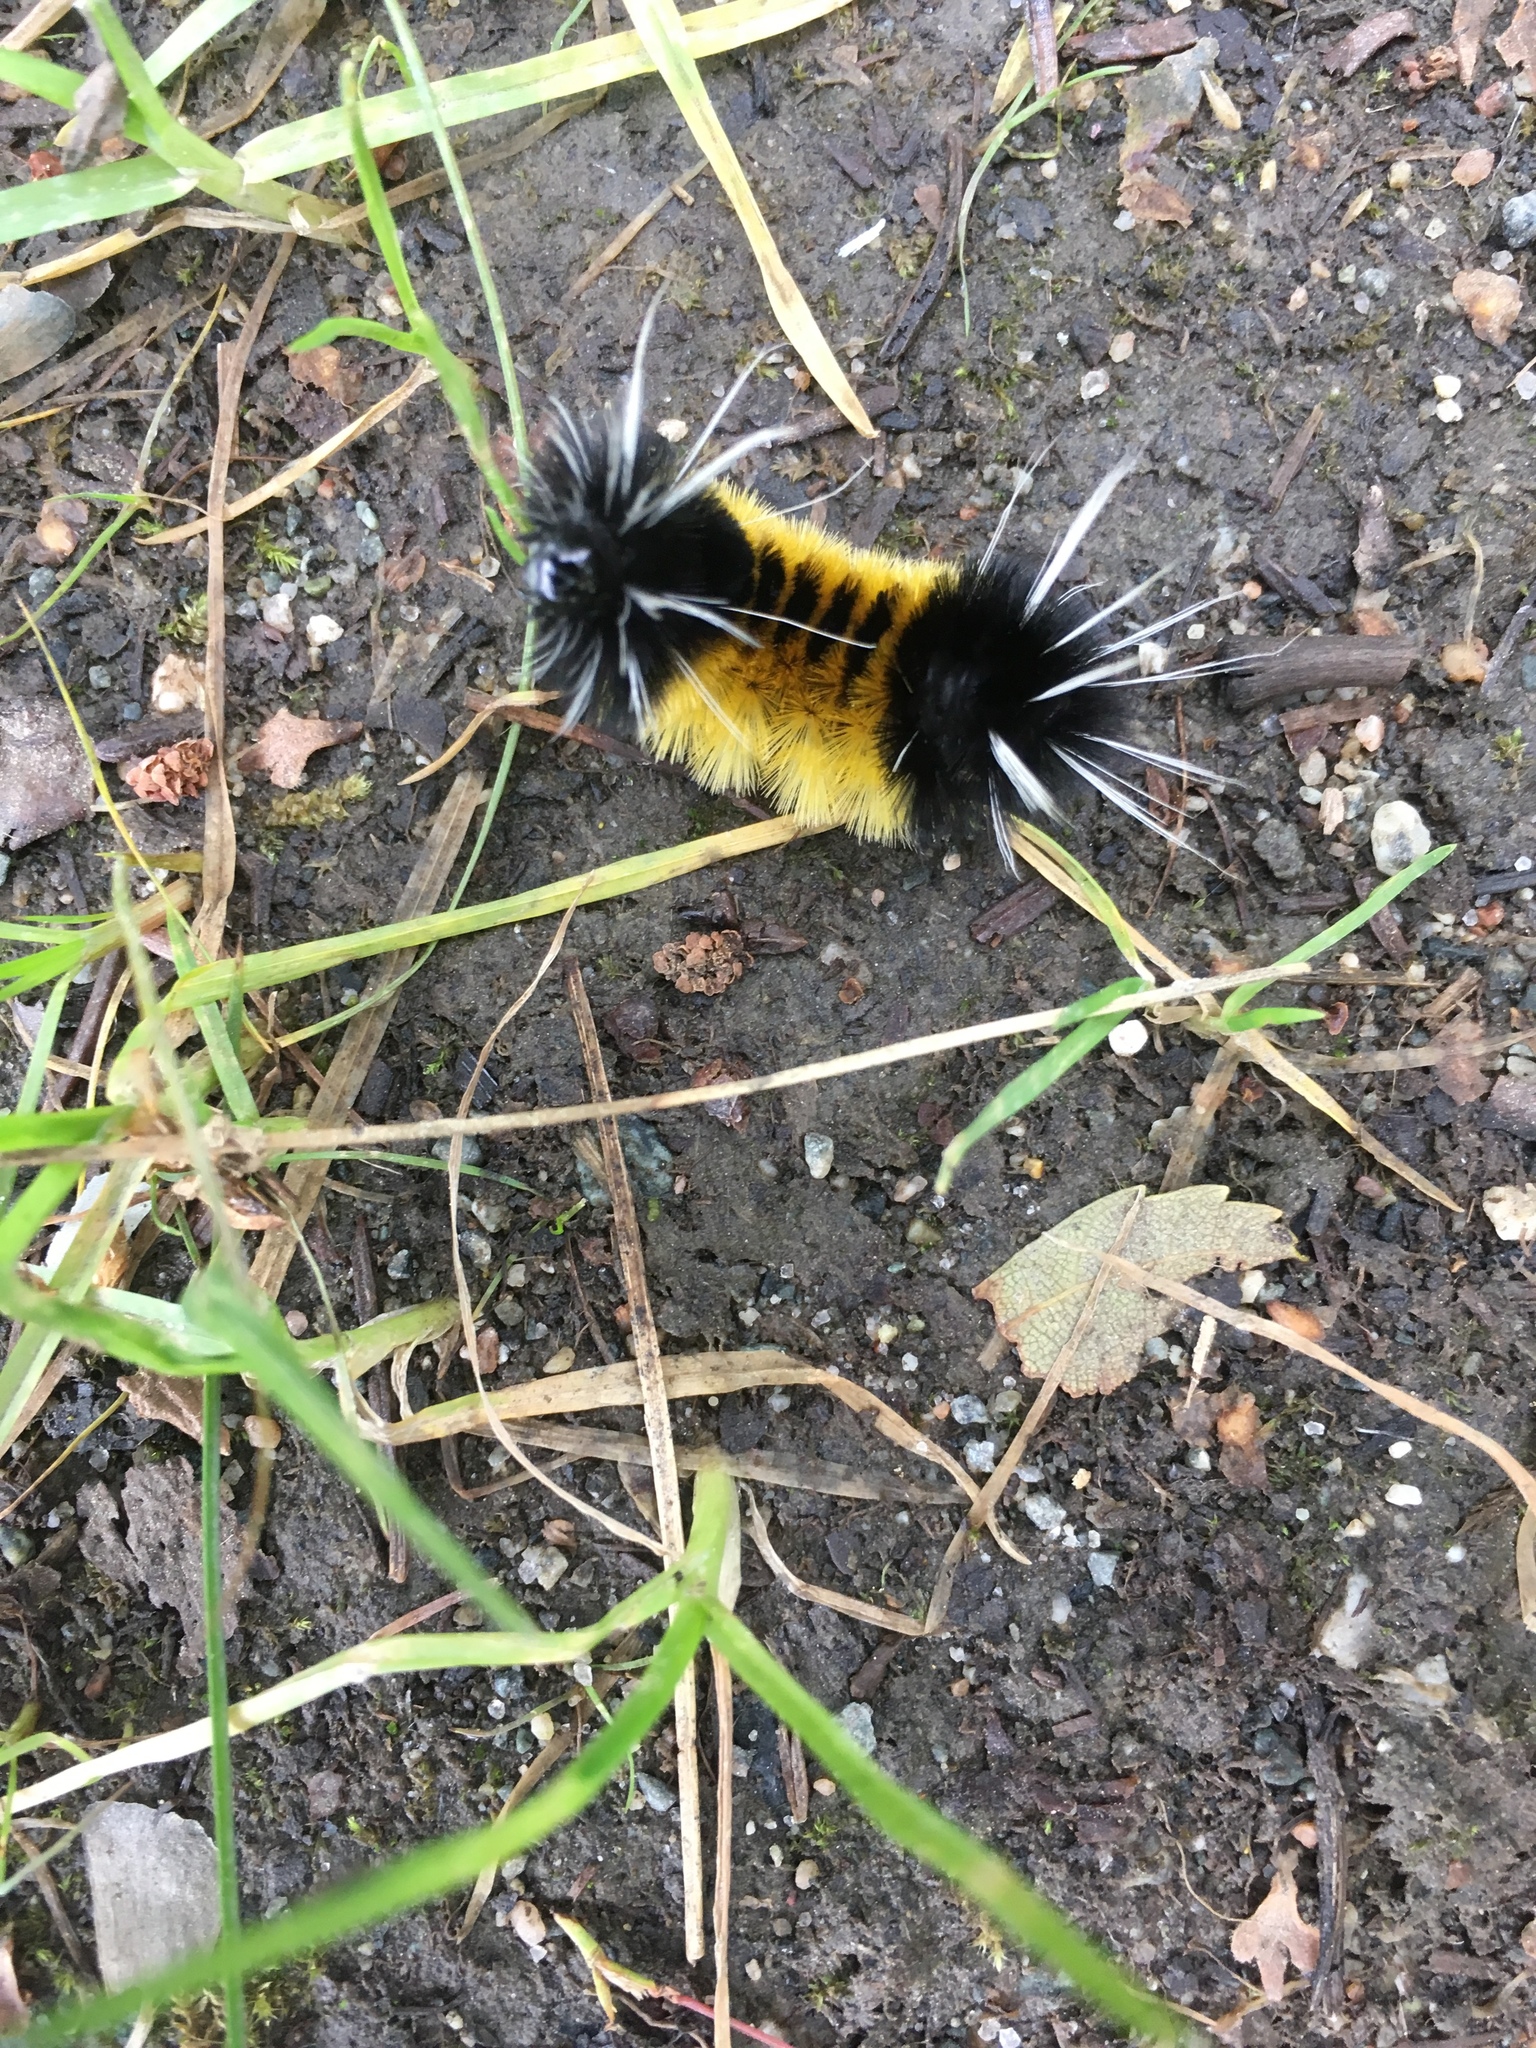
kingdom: Animalia
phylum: Arthropoda
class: Insecta
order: Lepidoptera
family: Erebidae
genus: Lophocampa
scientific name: Lophocampa maculata
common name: Spotted tussock moth
